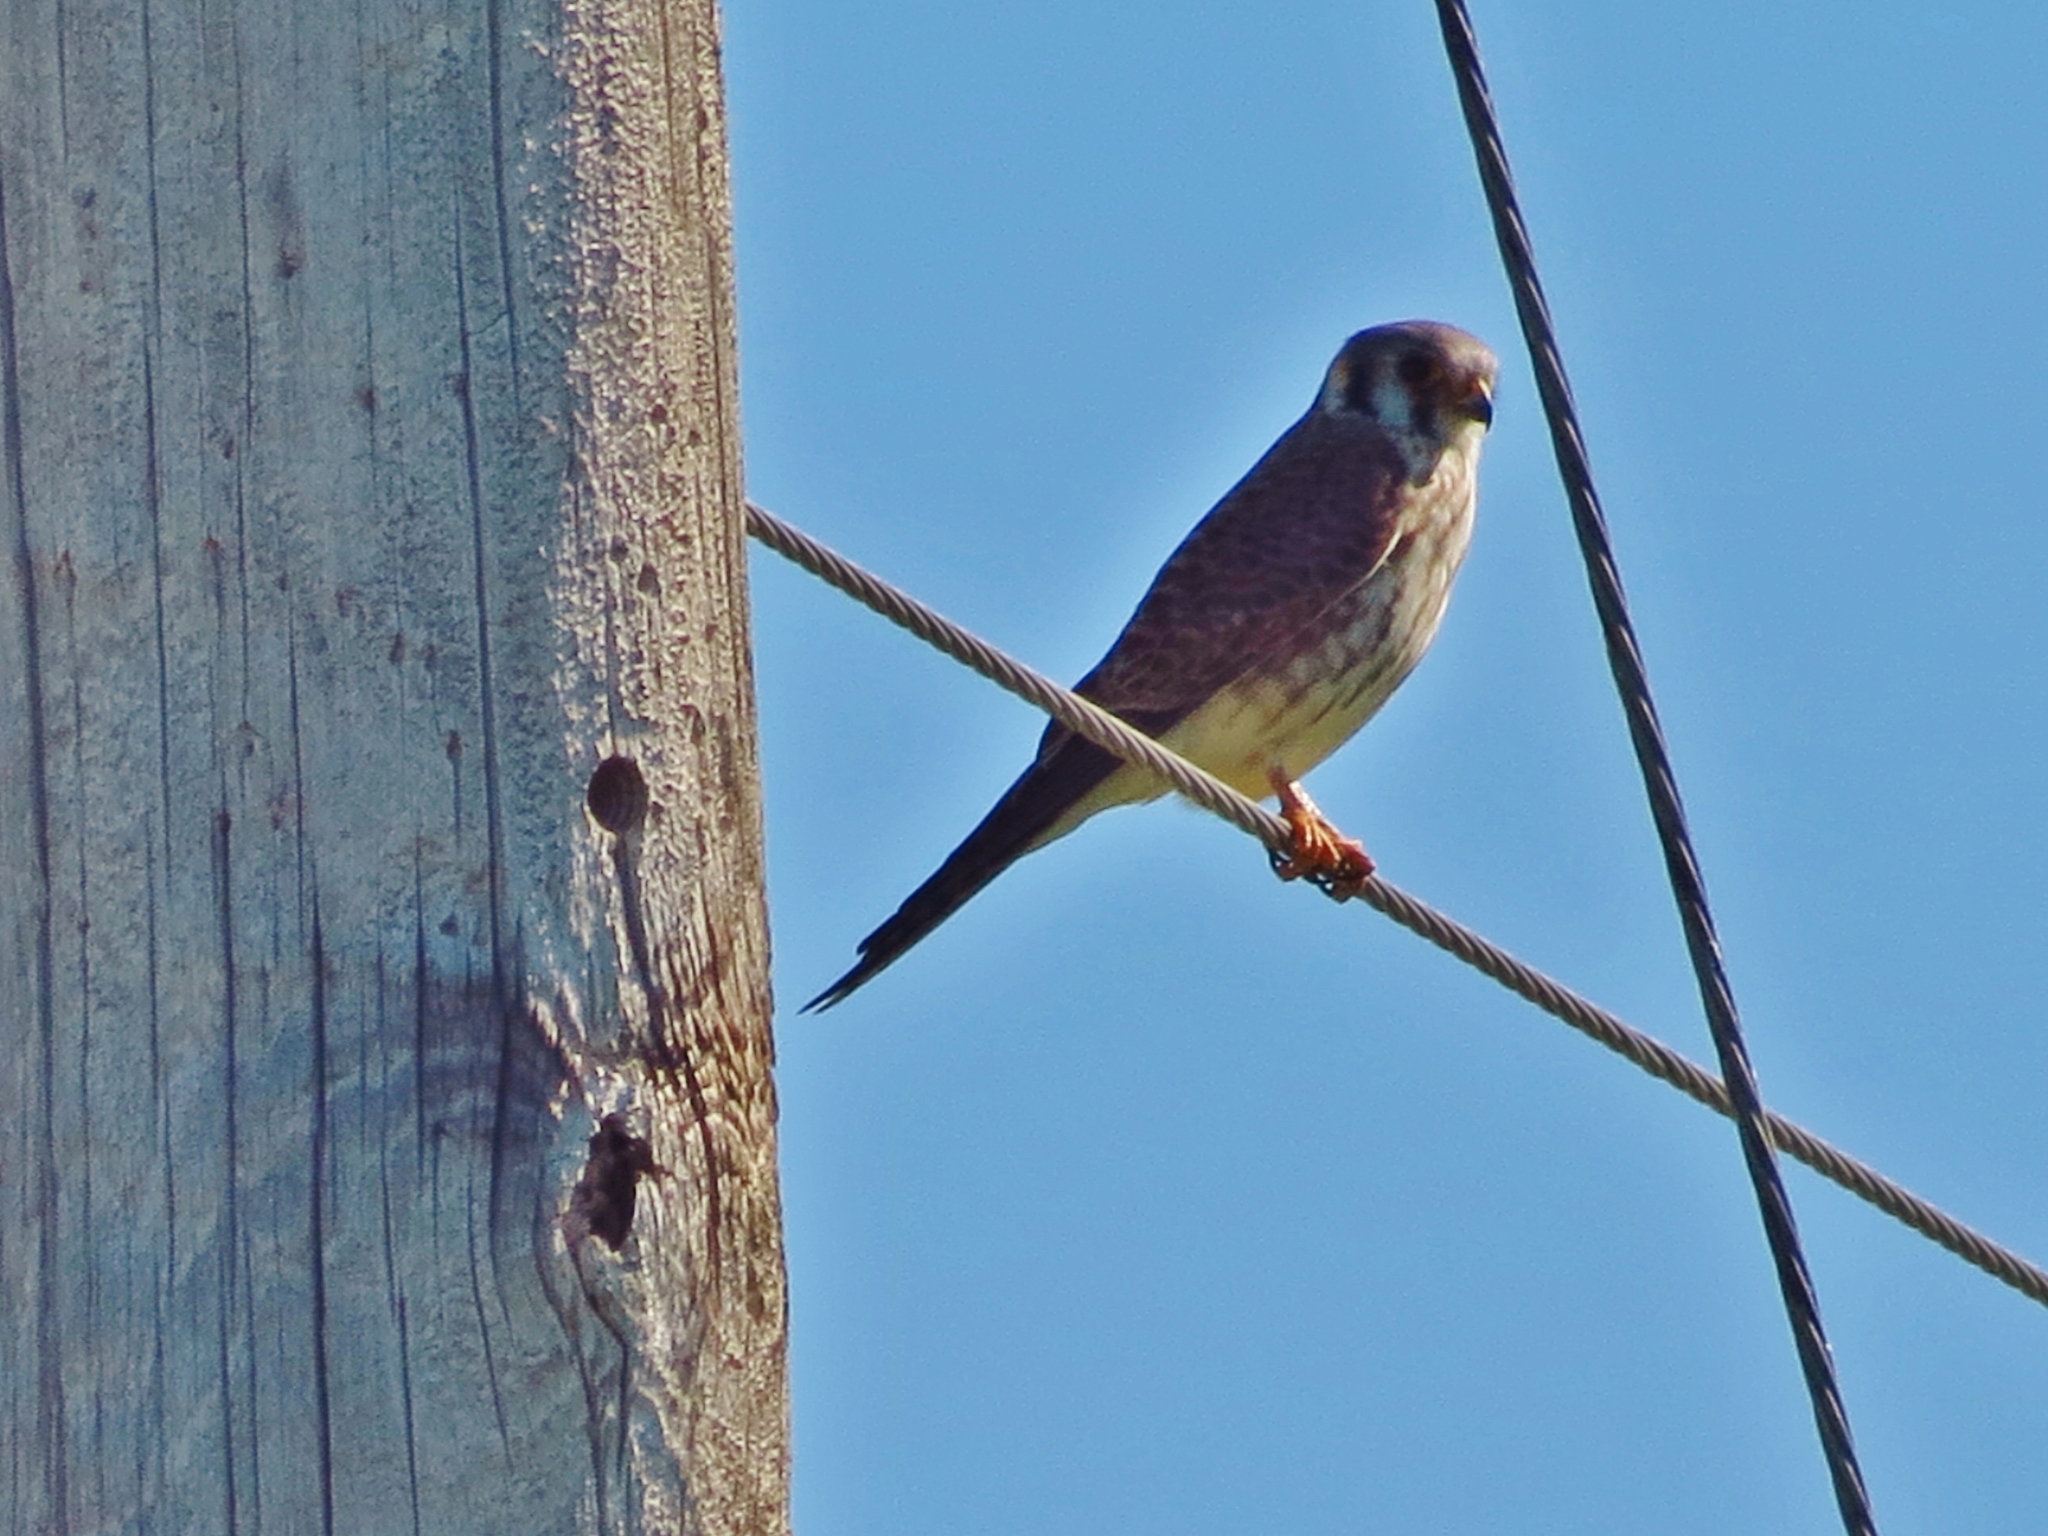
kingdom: Animalia
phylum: Chordata
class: Aves
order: Falconiformes
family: Falconidae
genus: Falco
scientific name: Falco sparverius
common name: American kestrel
